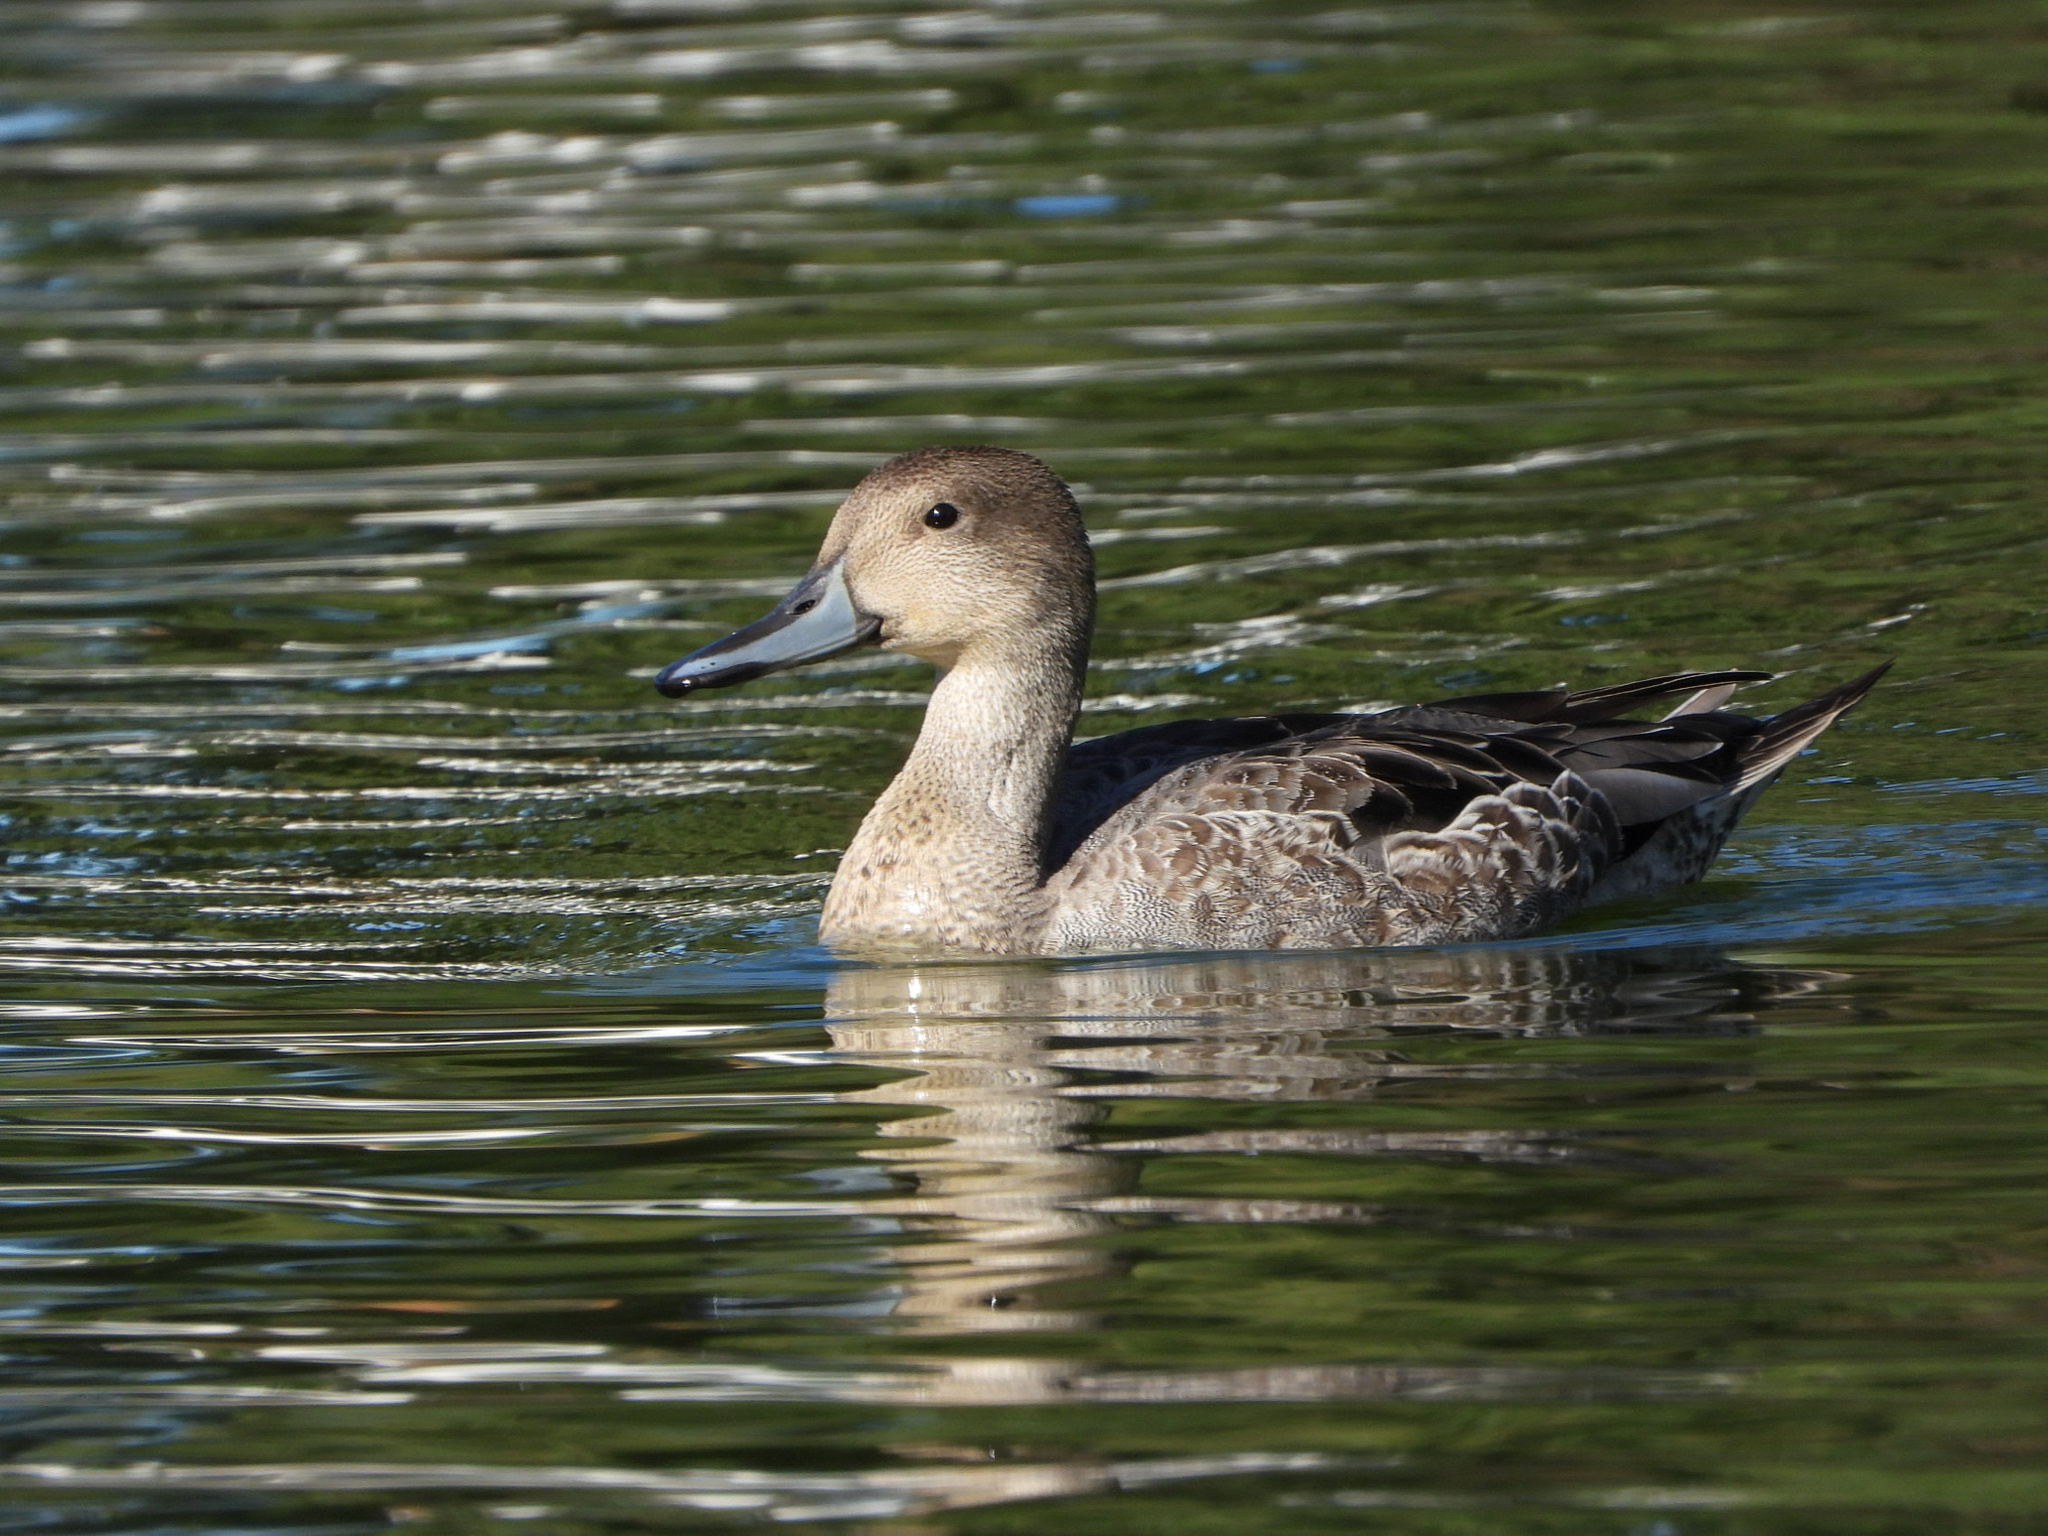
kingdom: Animalia
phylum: Chordata
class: Aves
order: Anseriformes
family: Anatidae
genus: Anas
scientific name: Anas acuta
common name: Northern pintail
